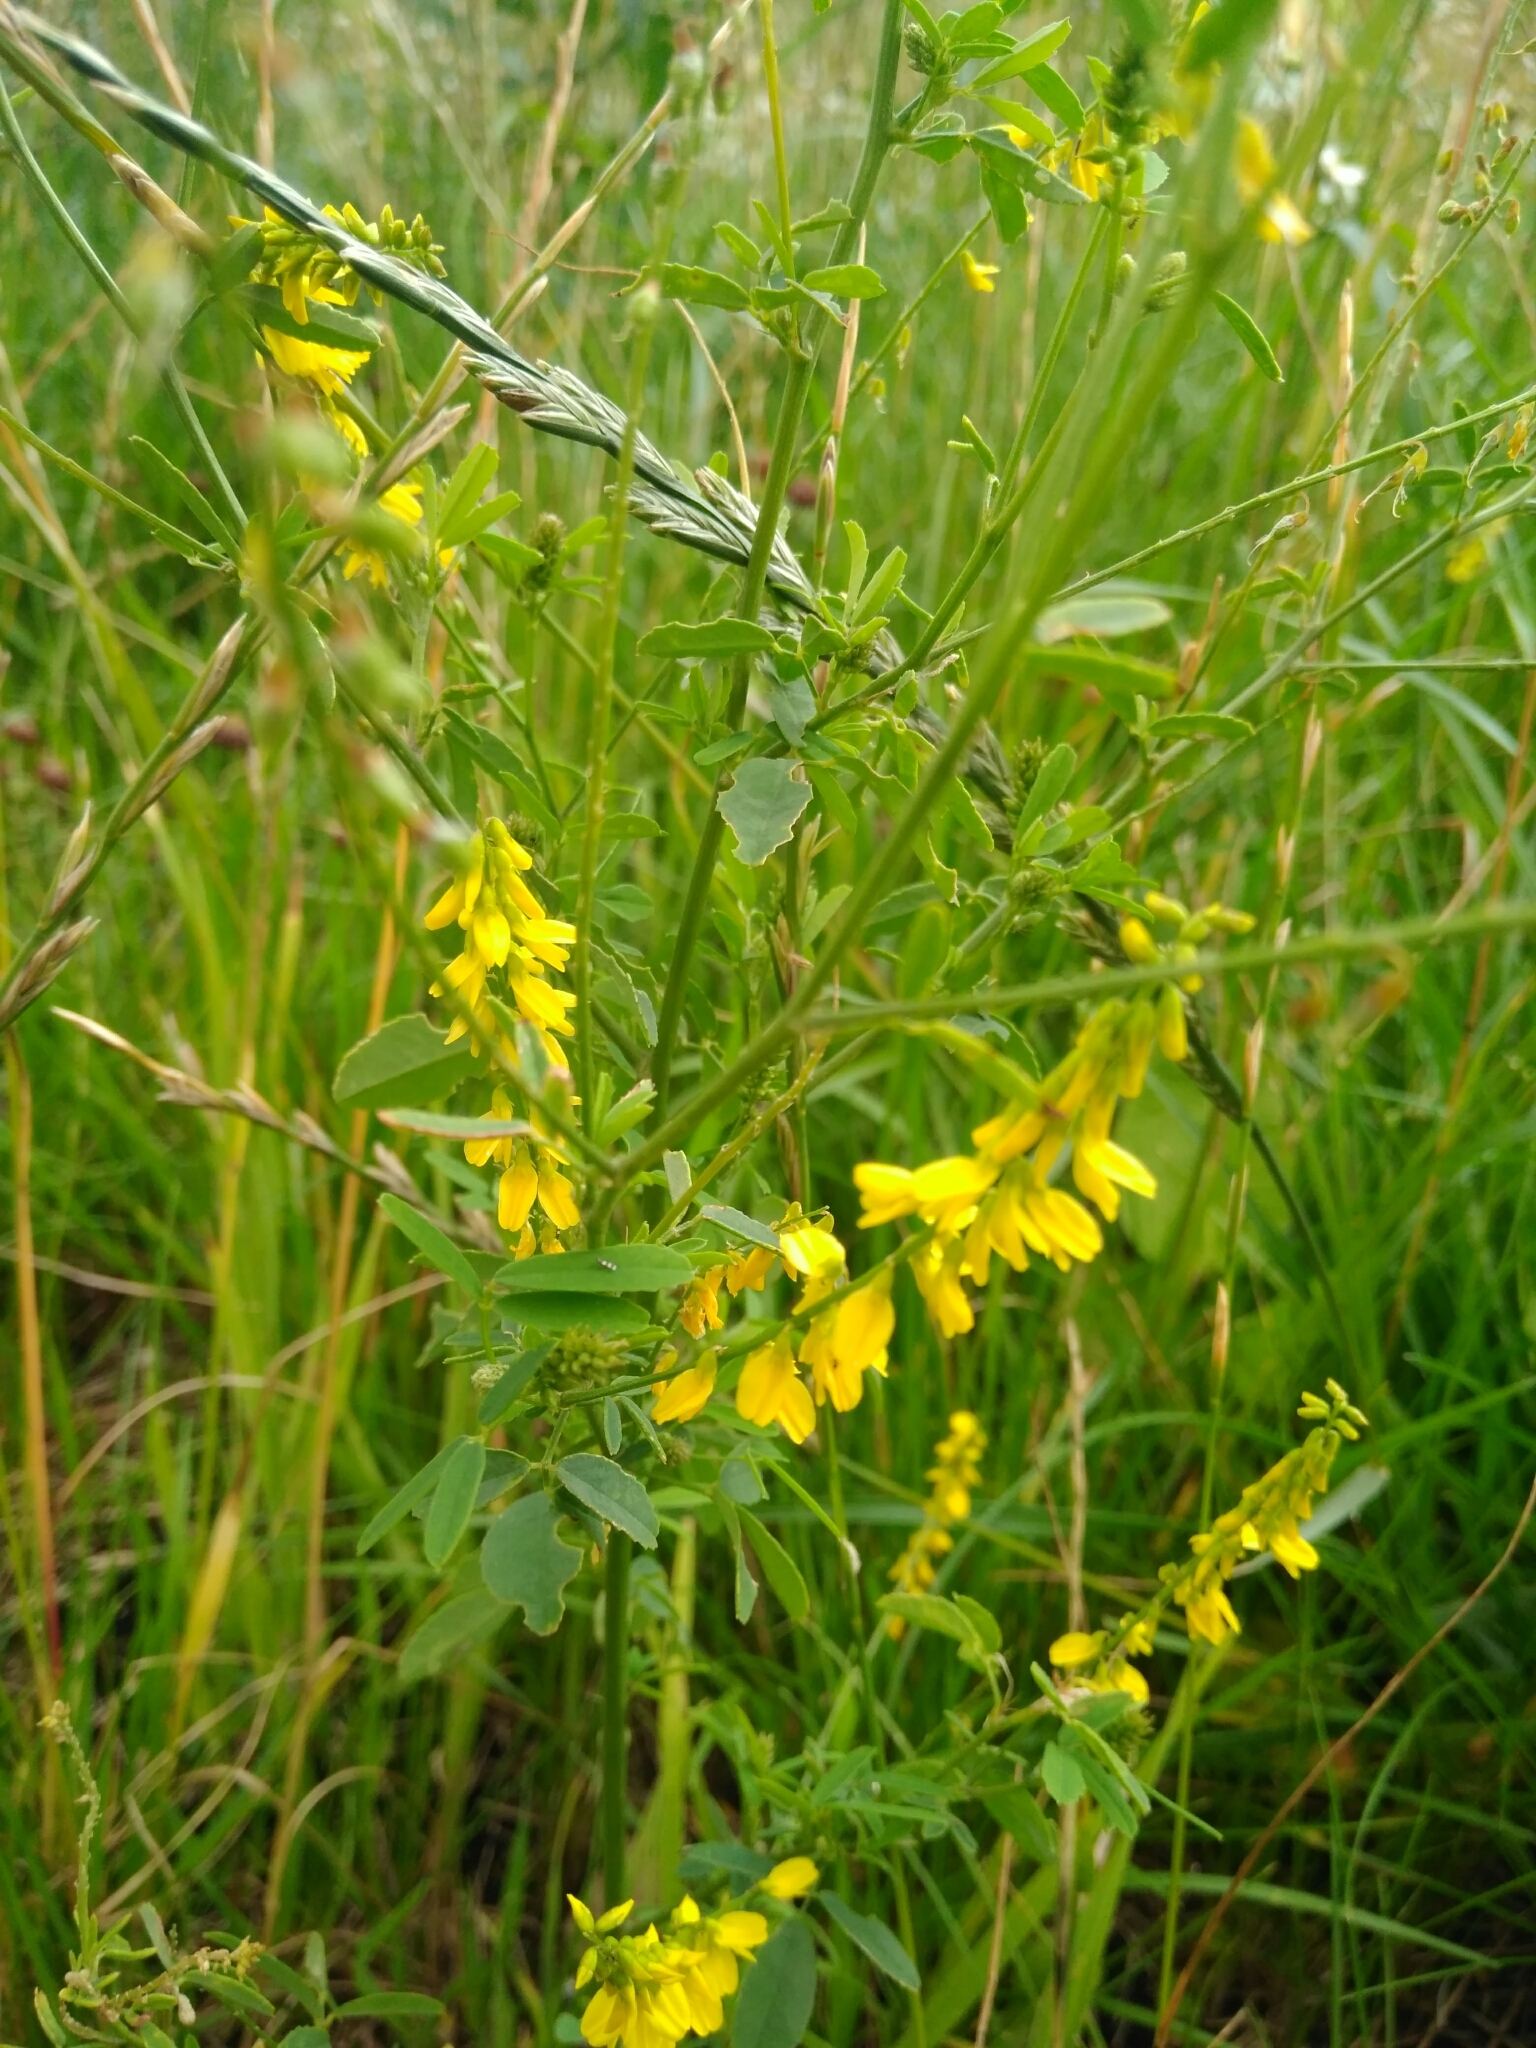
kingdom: Plantae
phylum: Tracheophyta
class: Magnoliopsida
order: Fabales
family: Fabaceae
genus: Melilotus
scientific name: Melilotus officinalis
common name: Sweetclover
